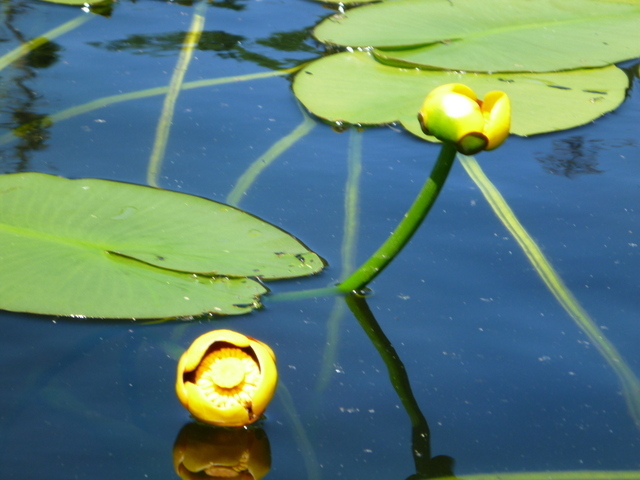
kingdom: Plantae
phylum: Tracheophyta
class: Magnoliopsida
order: Nymphaeales
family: Nymphaeaceae
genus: Nuphar
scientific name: Nuphar variegata
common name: Beaver-root
